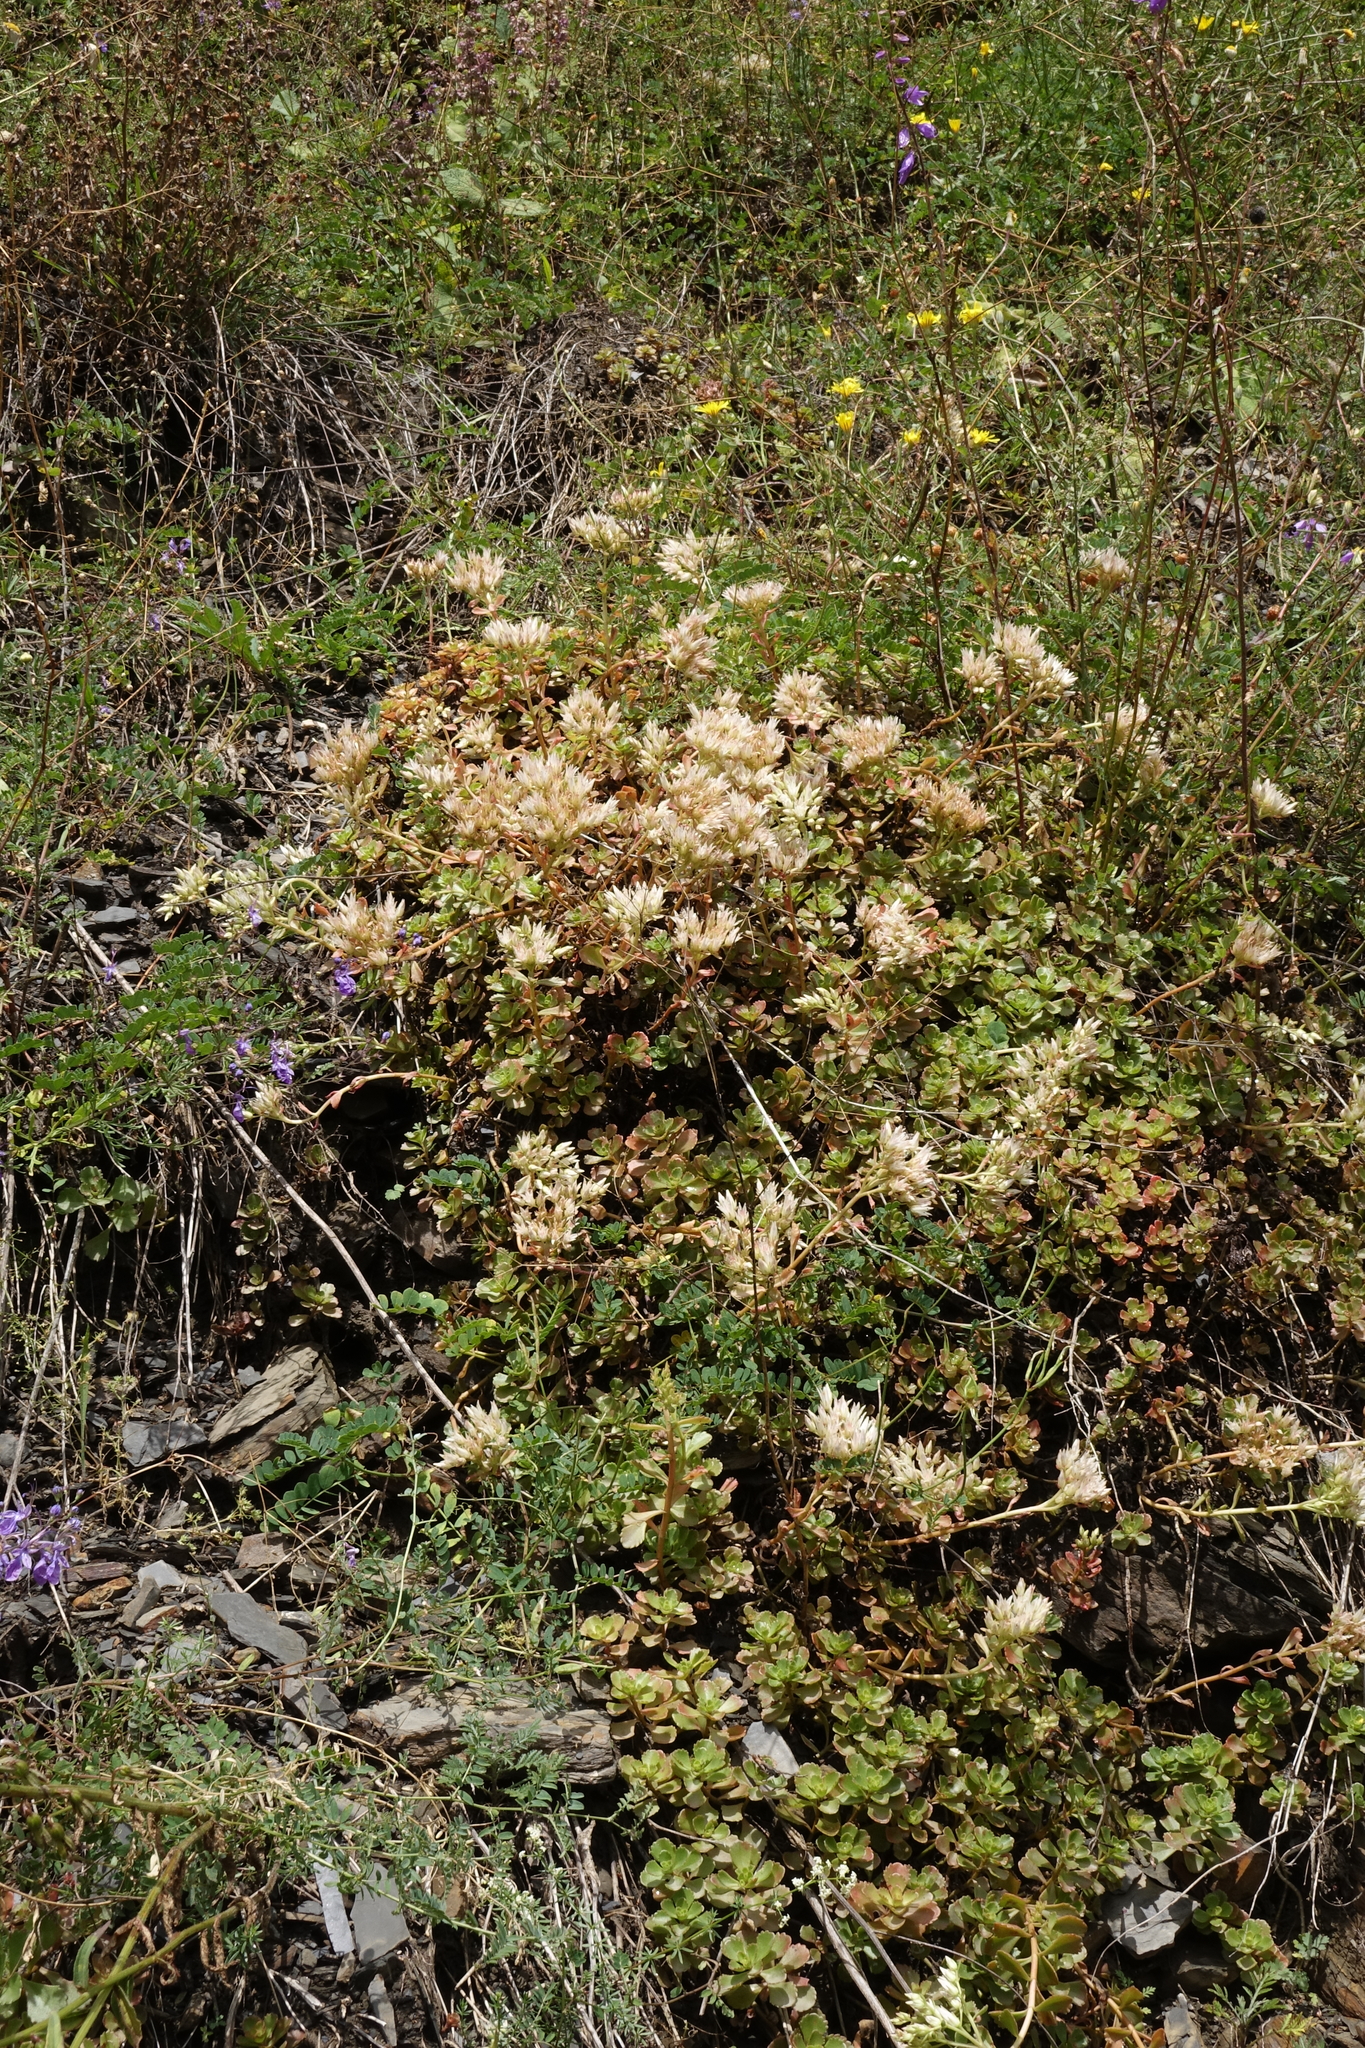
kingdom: Plantae
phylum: Tracheophyta
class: Magnoliopsida
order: Saxifragales
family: Crassulaceae
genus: Phedimus
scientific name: Phedimus spurius
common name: Caucasian stonecrop
